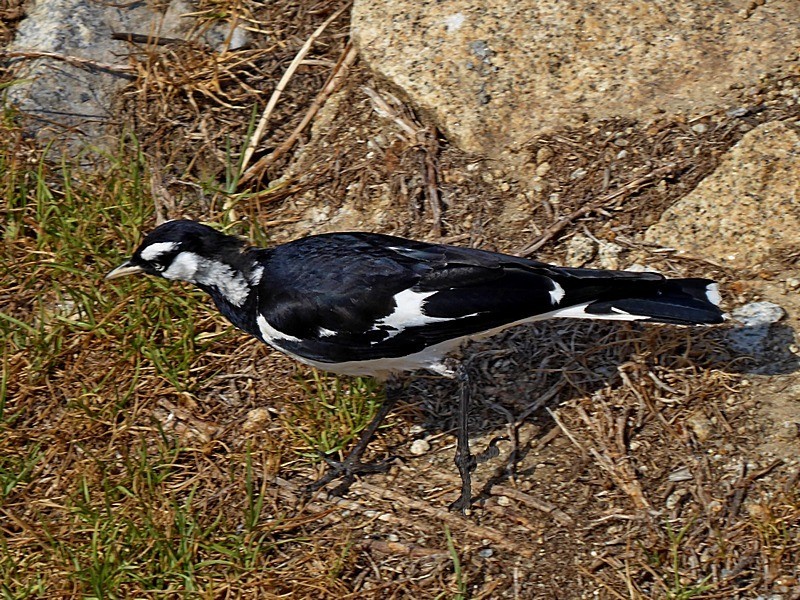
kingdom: Animalia
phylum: Chordata
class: Aves
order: Passeriformes
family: Monarchidae
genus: Grallina
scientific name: Grallina cyanoleuca
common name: Magpie-lark
